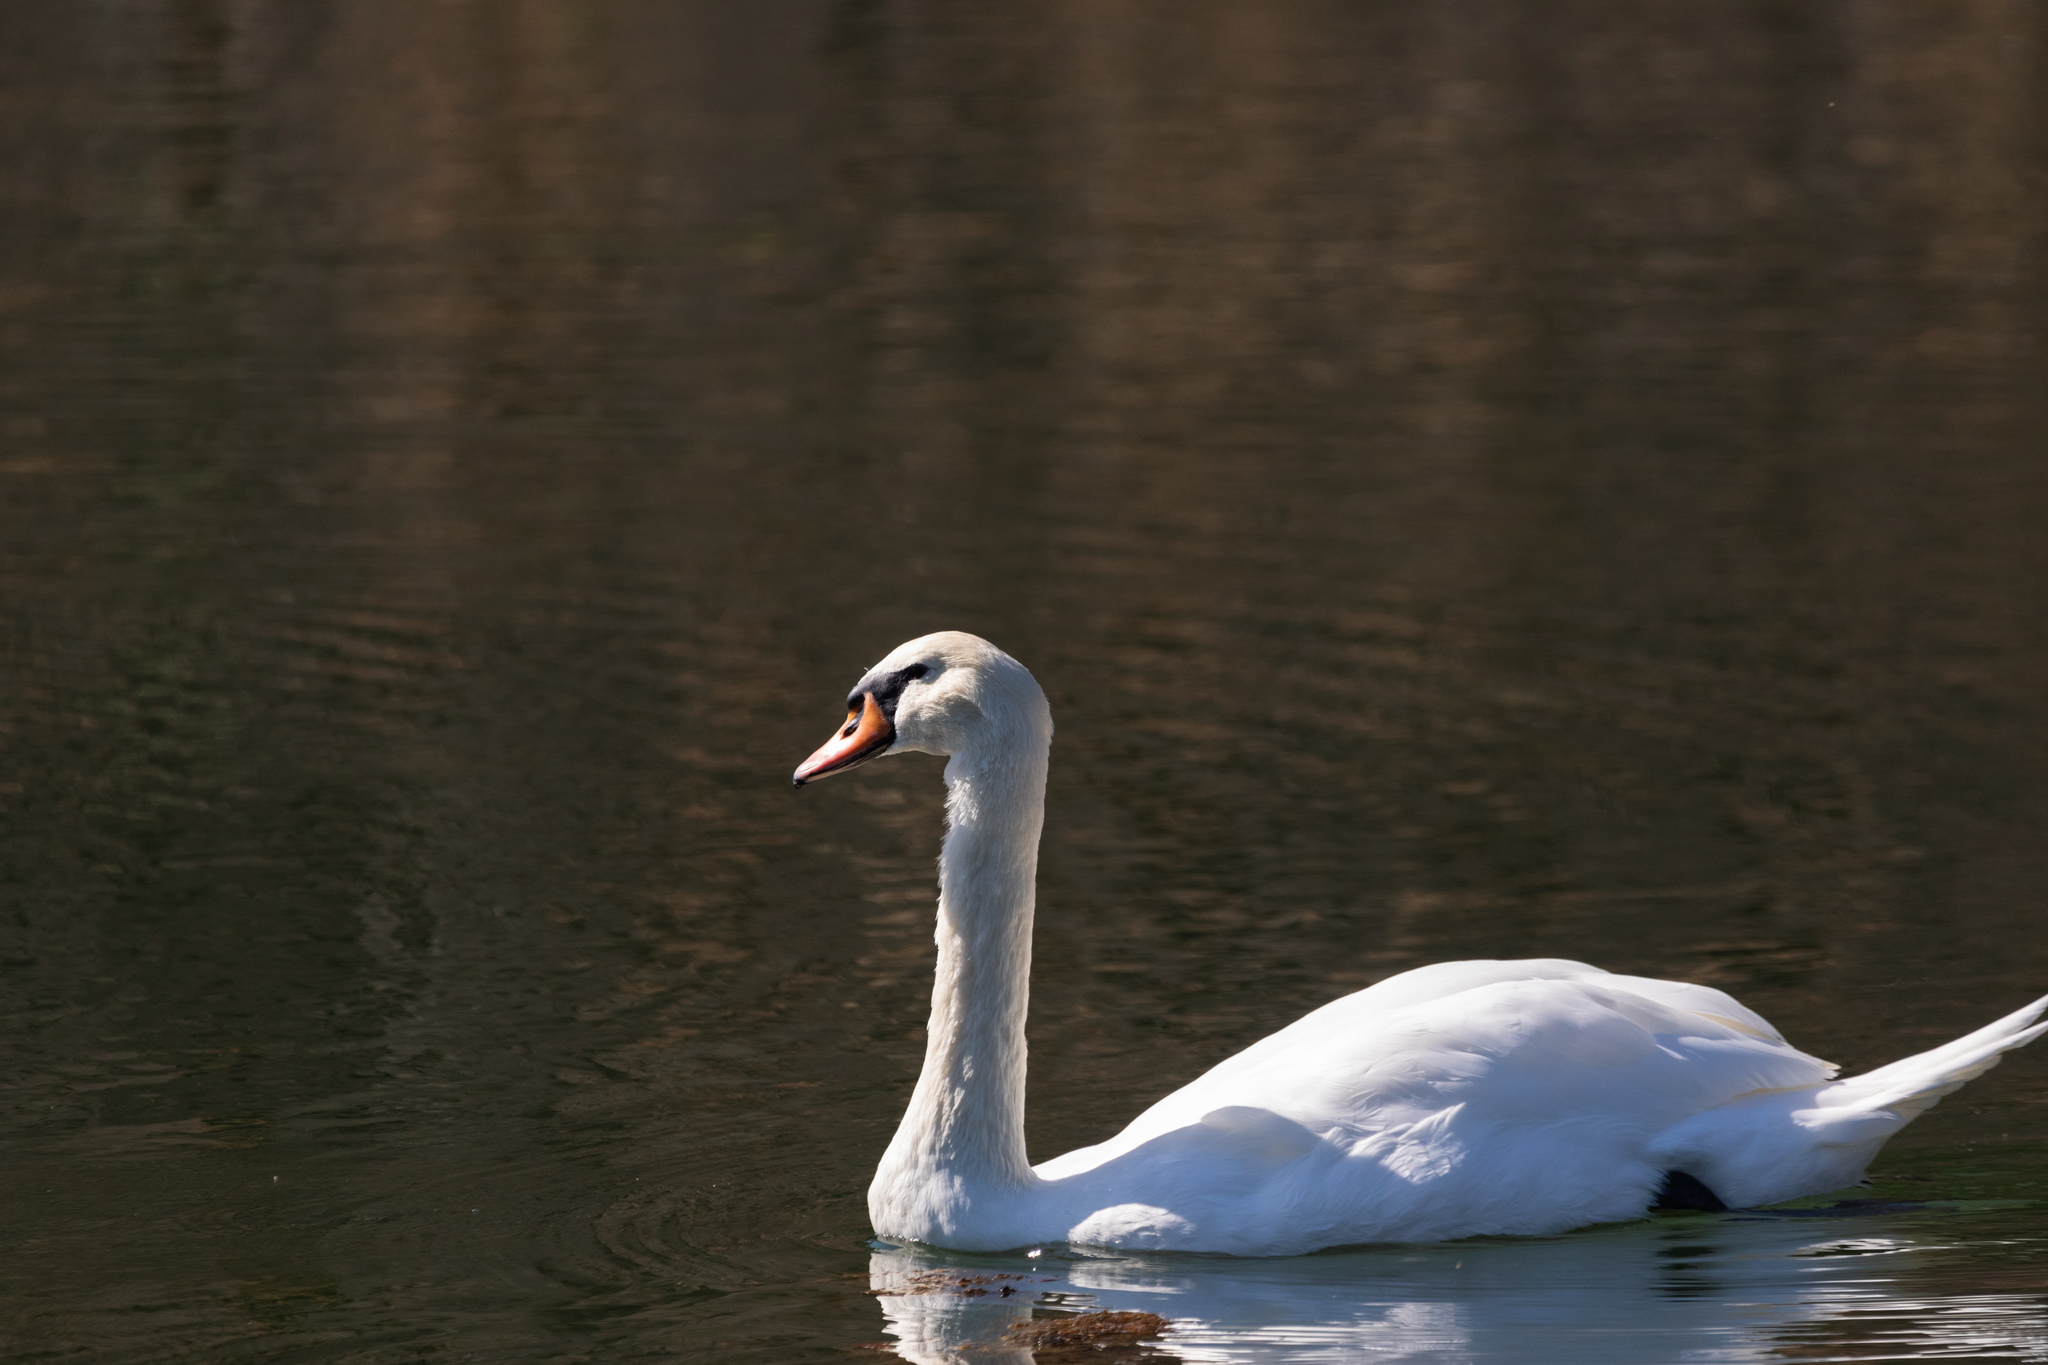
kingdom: Animalia
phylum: Chordata
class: Aves
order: Anseriformes
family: Anatidae
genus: Cygnus
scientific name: Cygnus olor
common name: Mute swan
